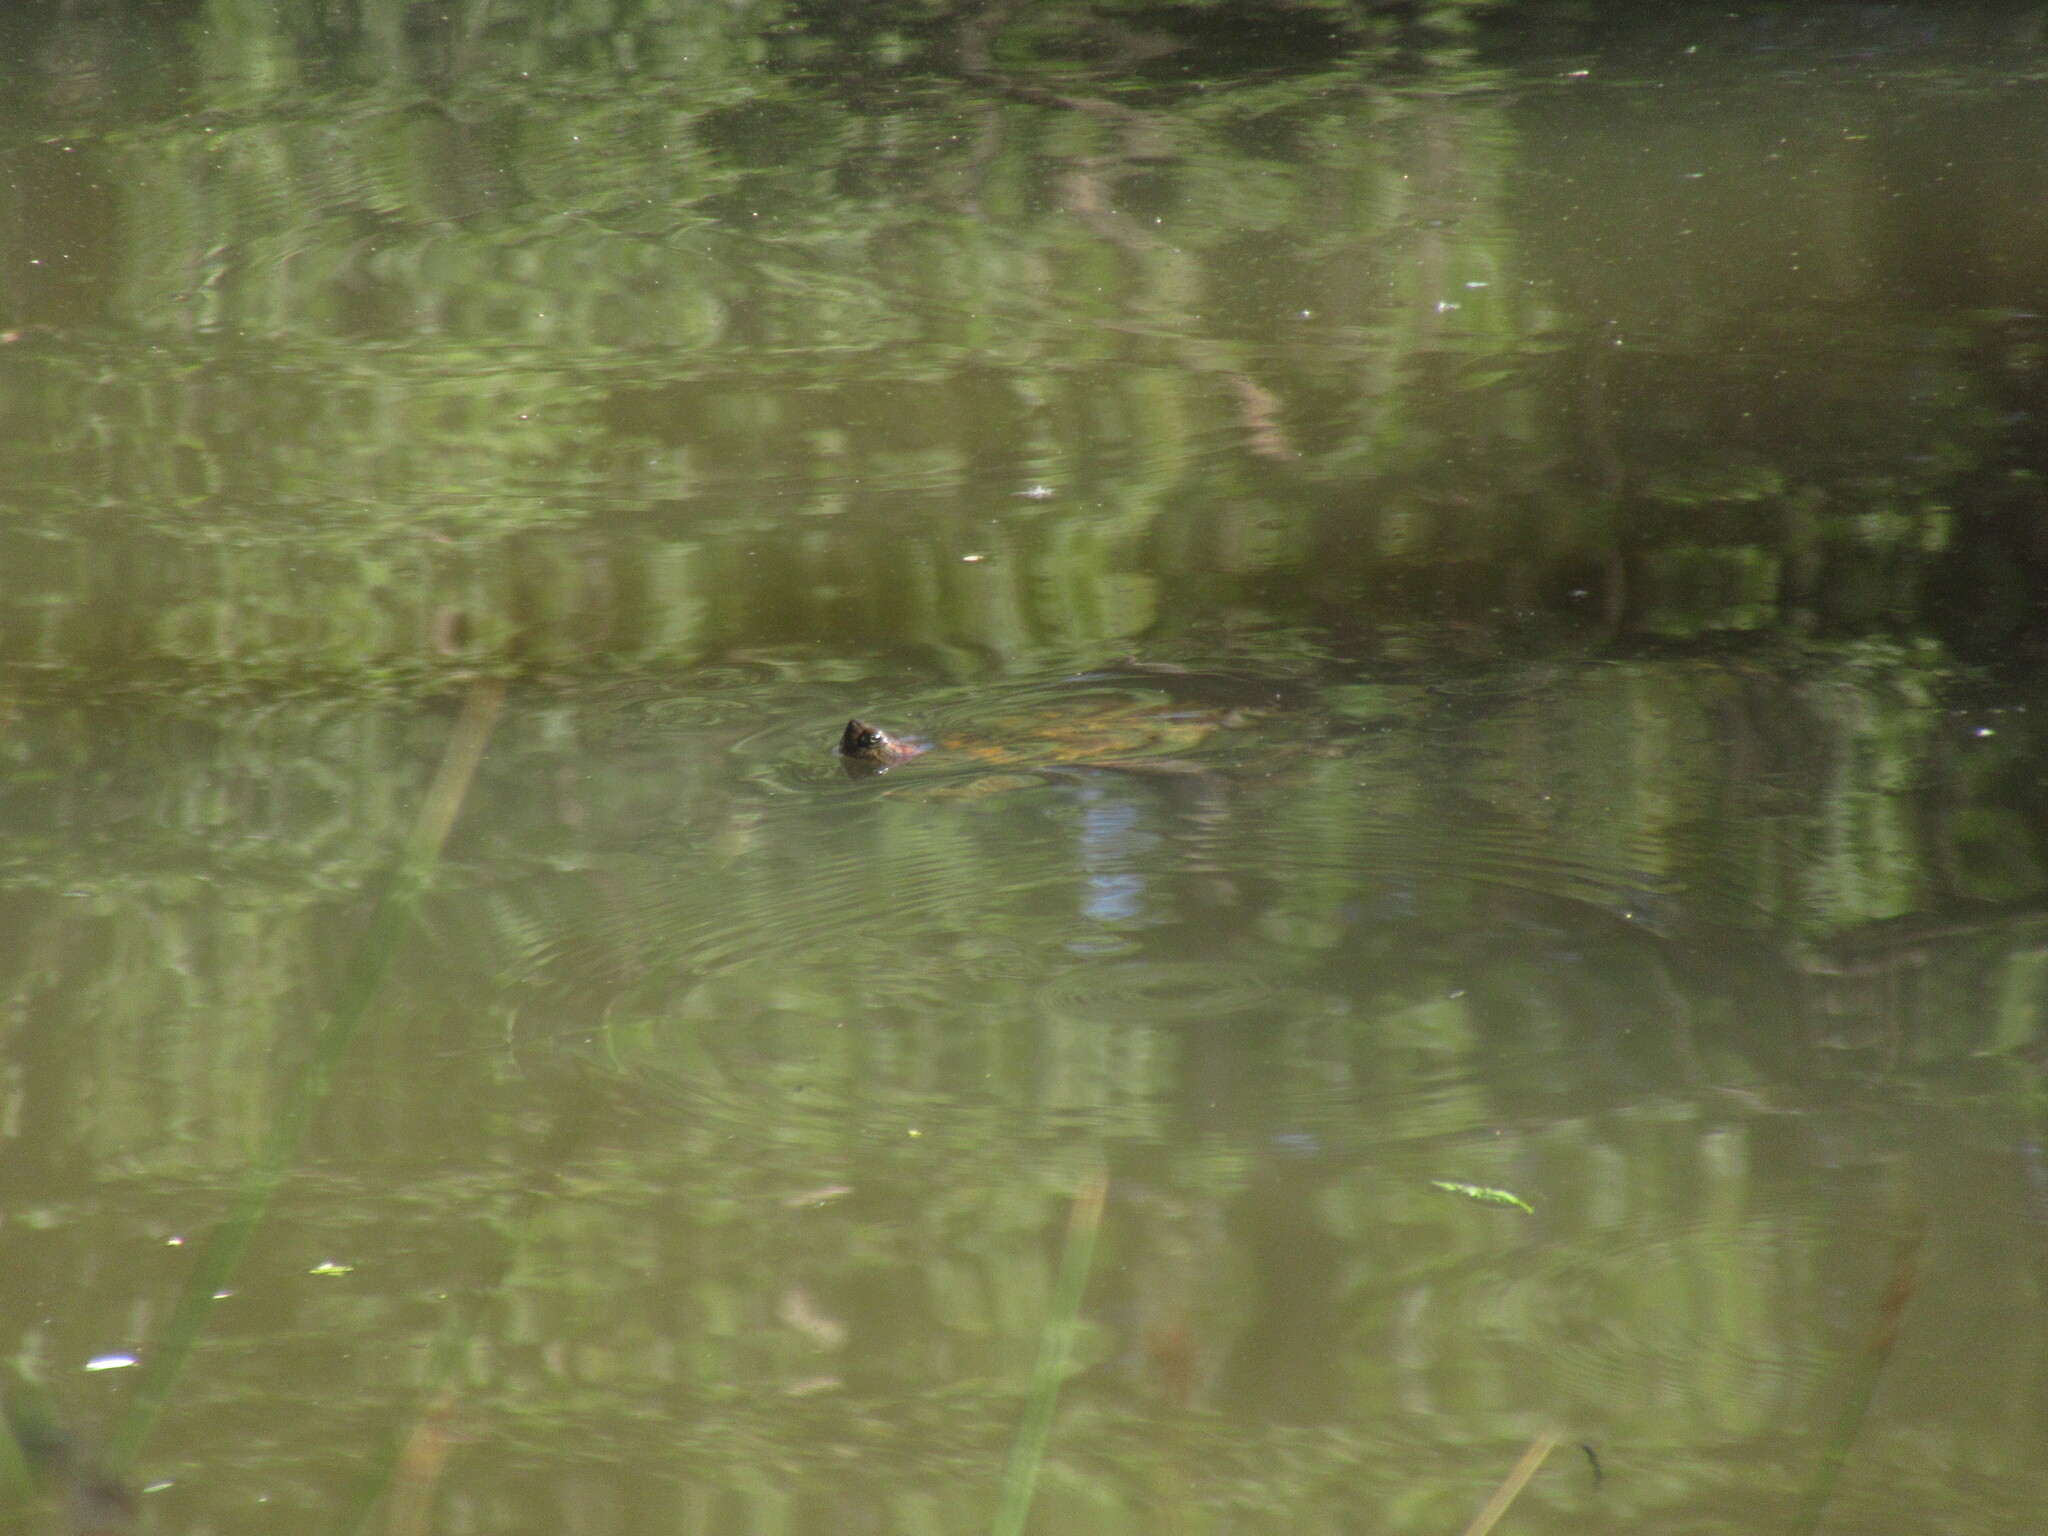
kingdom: Animalia
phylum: Chordata
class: Testudines
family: Emydidae
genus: Trachemys
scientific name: Trachemys scripta
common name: Slider
